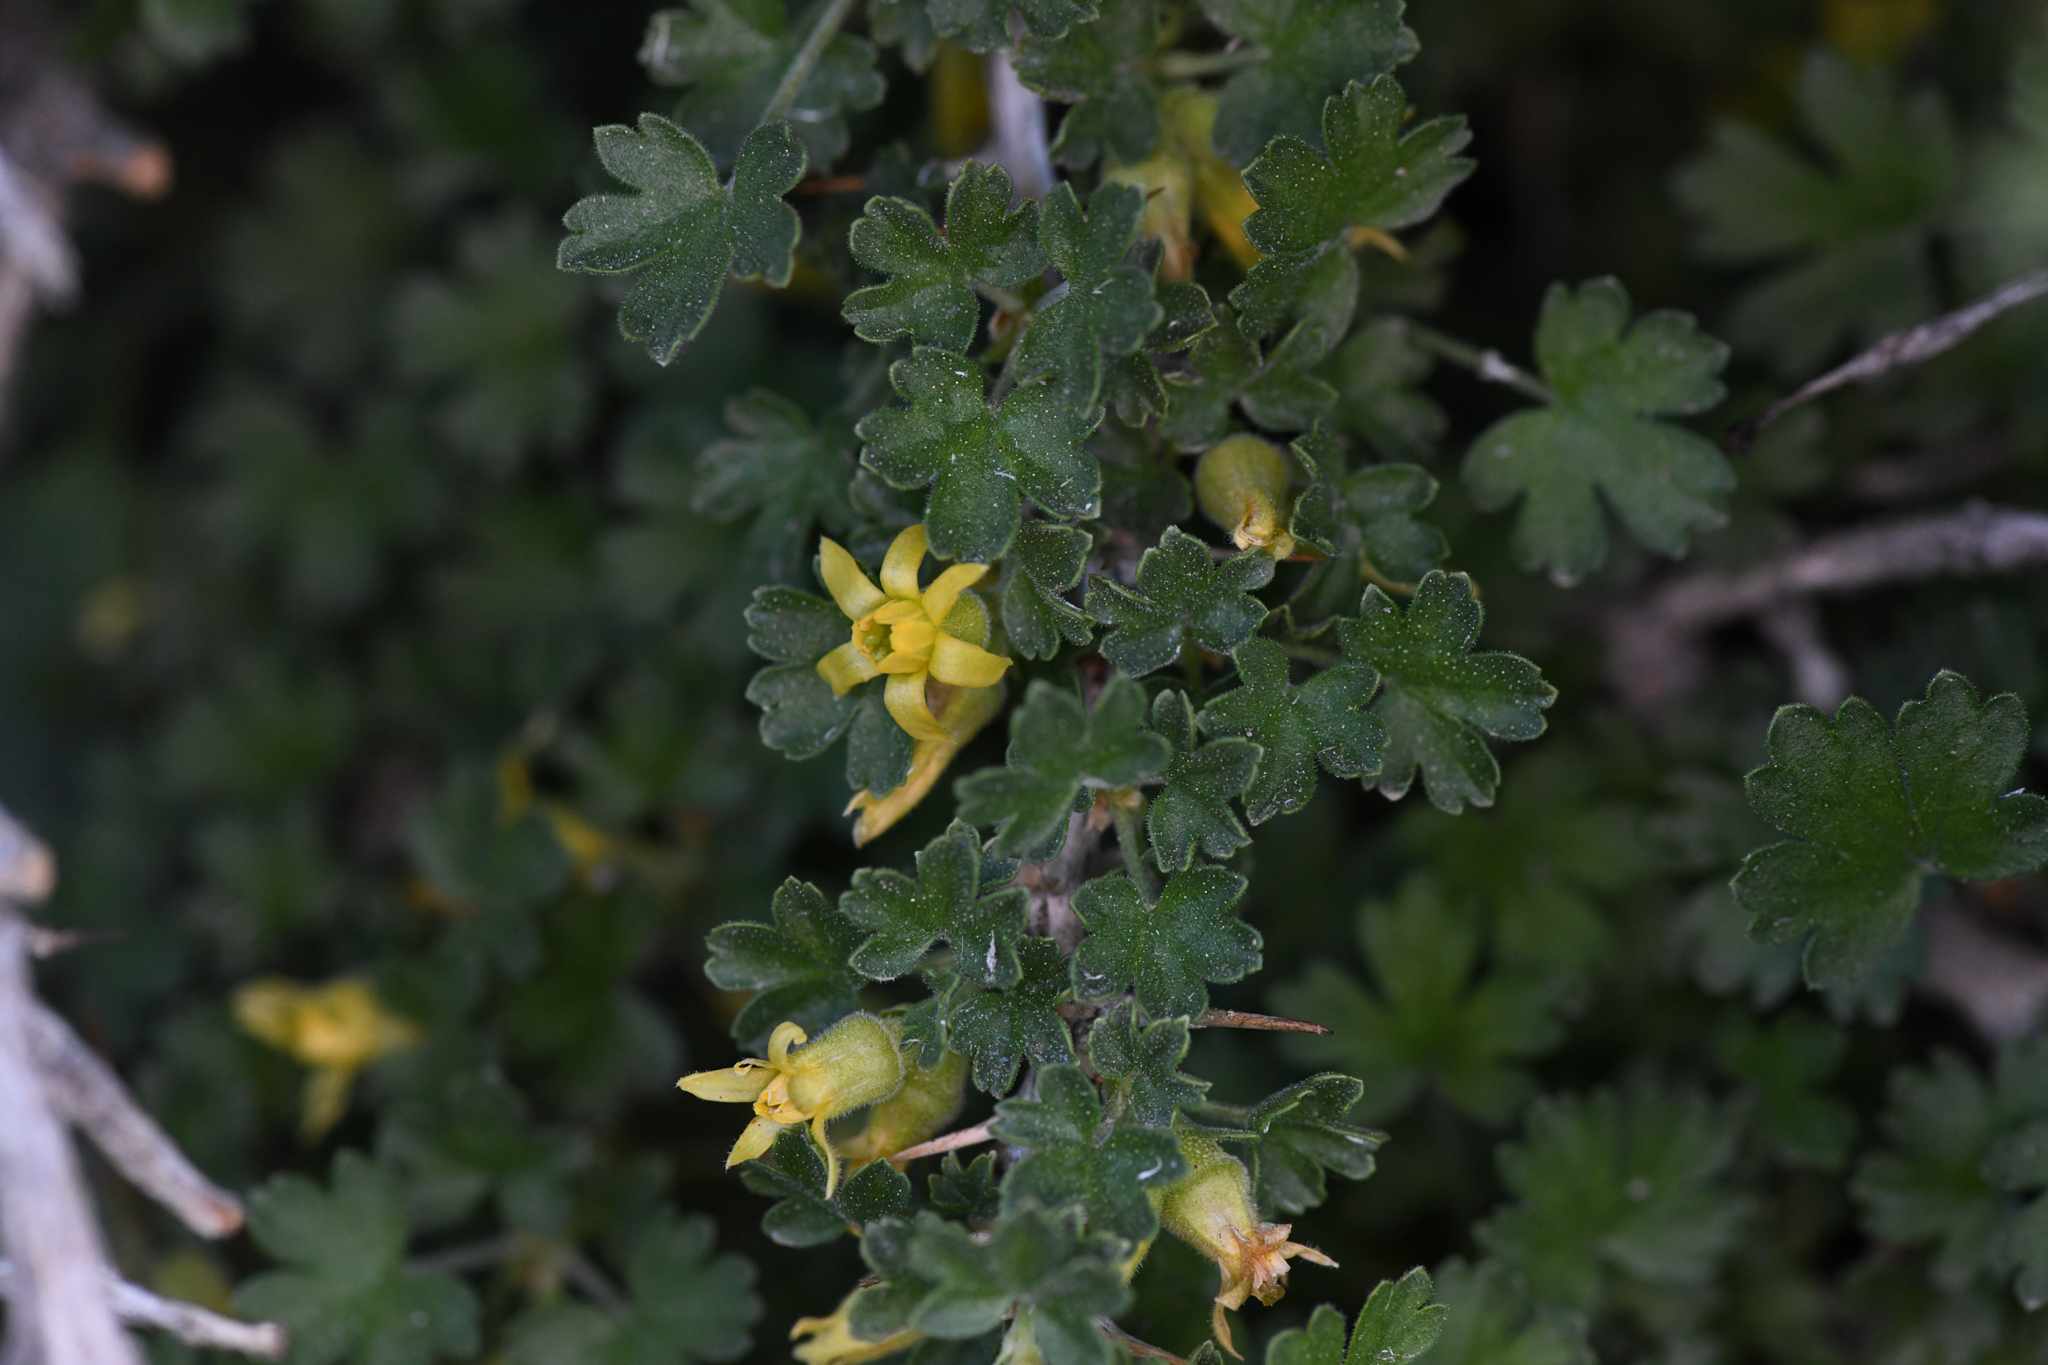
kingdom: Plantae
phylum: Tracheophyta
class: Magnoliopsida
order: Saxifragales
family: Grossulariaceae
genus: Ribes
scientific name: Ribes velutinum
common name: Desert gooseberry
